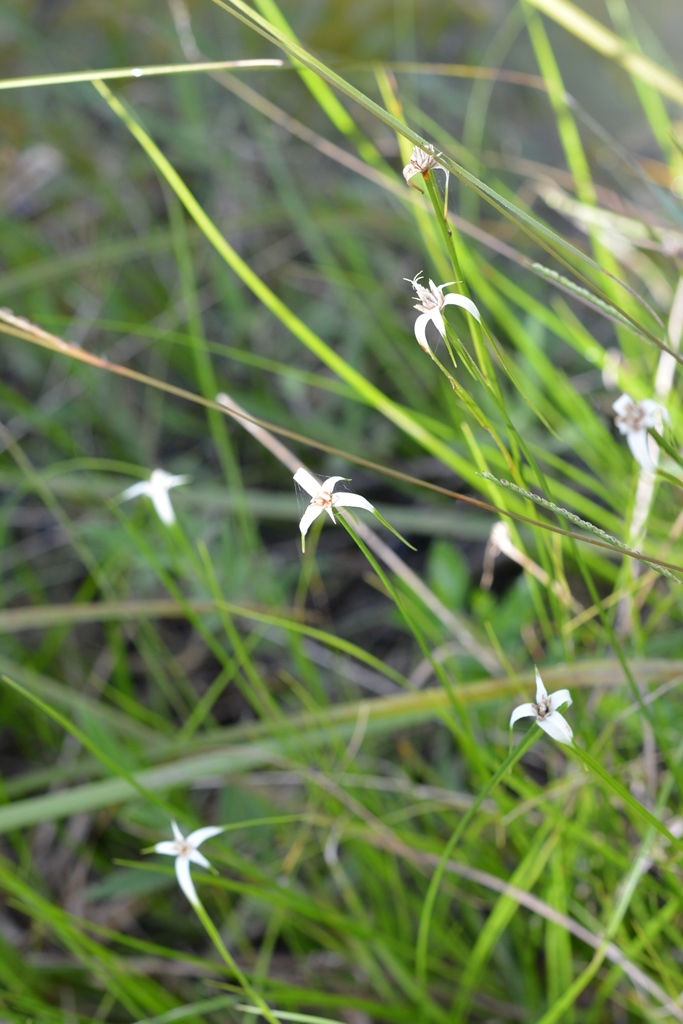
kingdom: Plantae
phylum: Tracheophyta
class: Liliopsida
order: Poales
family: Cyperaceae
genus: Rhynchospora
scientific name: Rhynchospora colorata
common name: Star sedge
